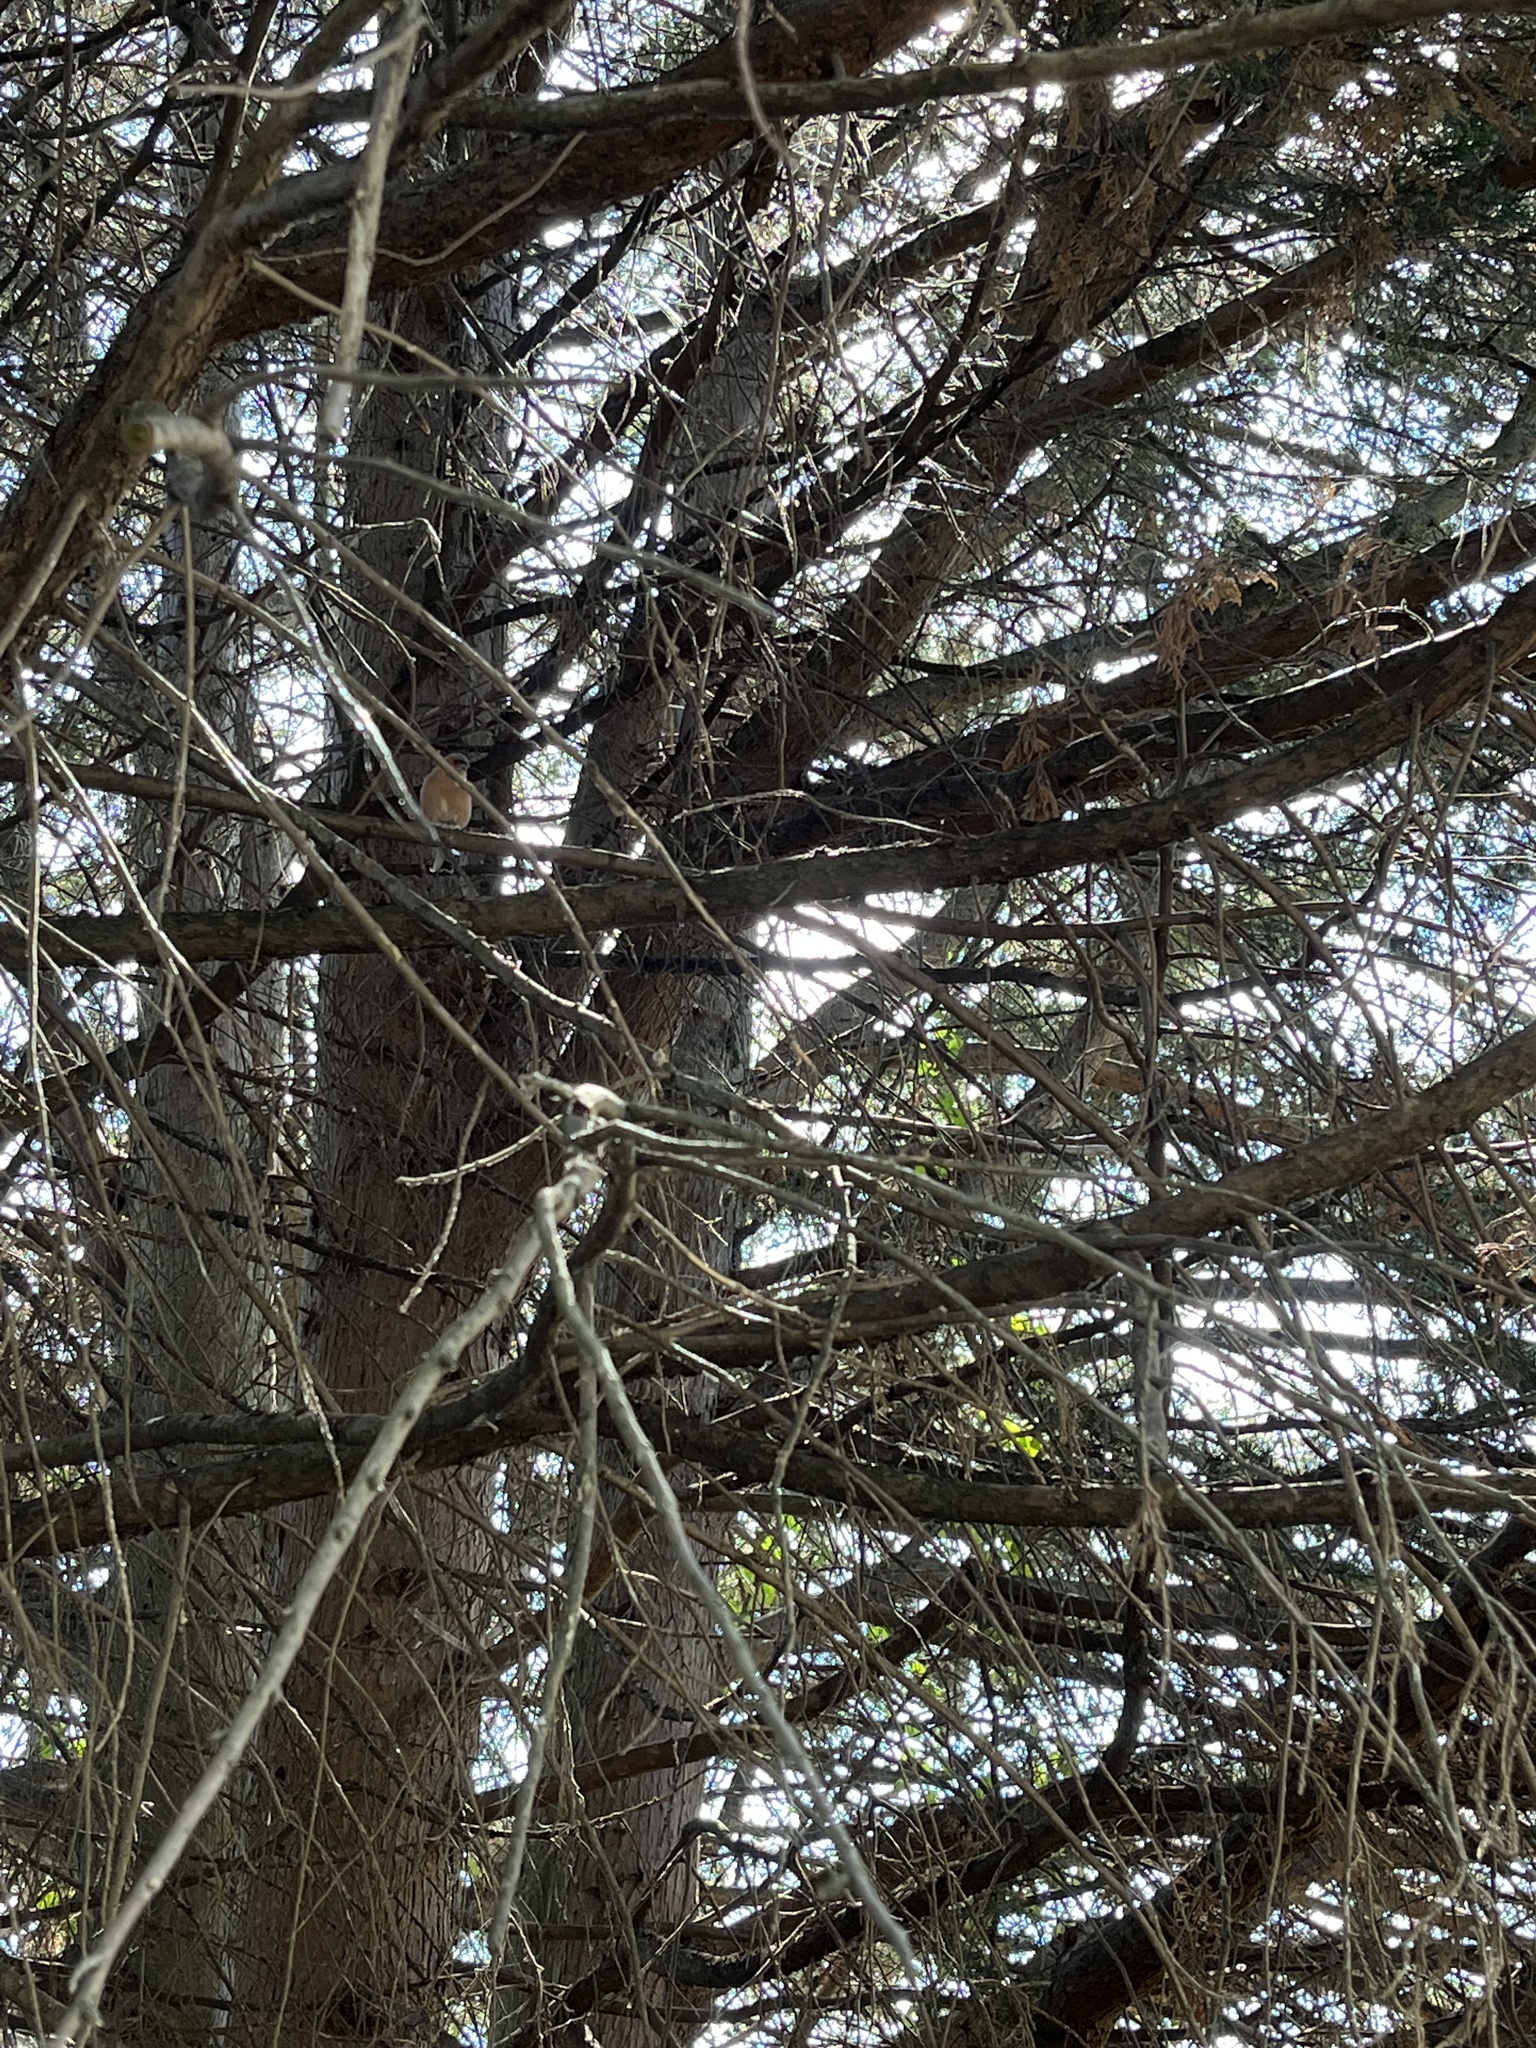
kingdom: Animalia
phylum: Chordata
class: Aves
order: Passeriformes
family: Fringillidae
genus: Fringilla
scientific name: Fringilla coelebs
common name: Common chaffinch
